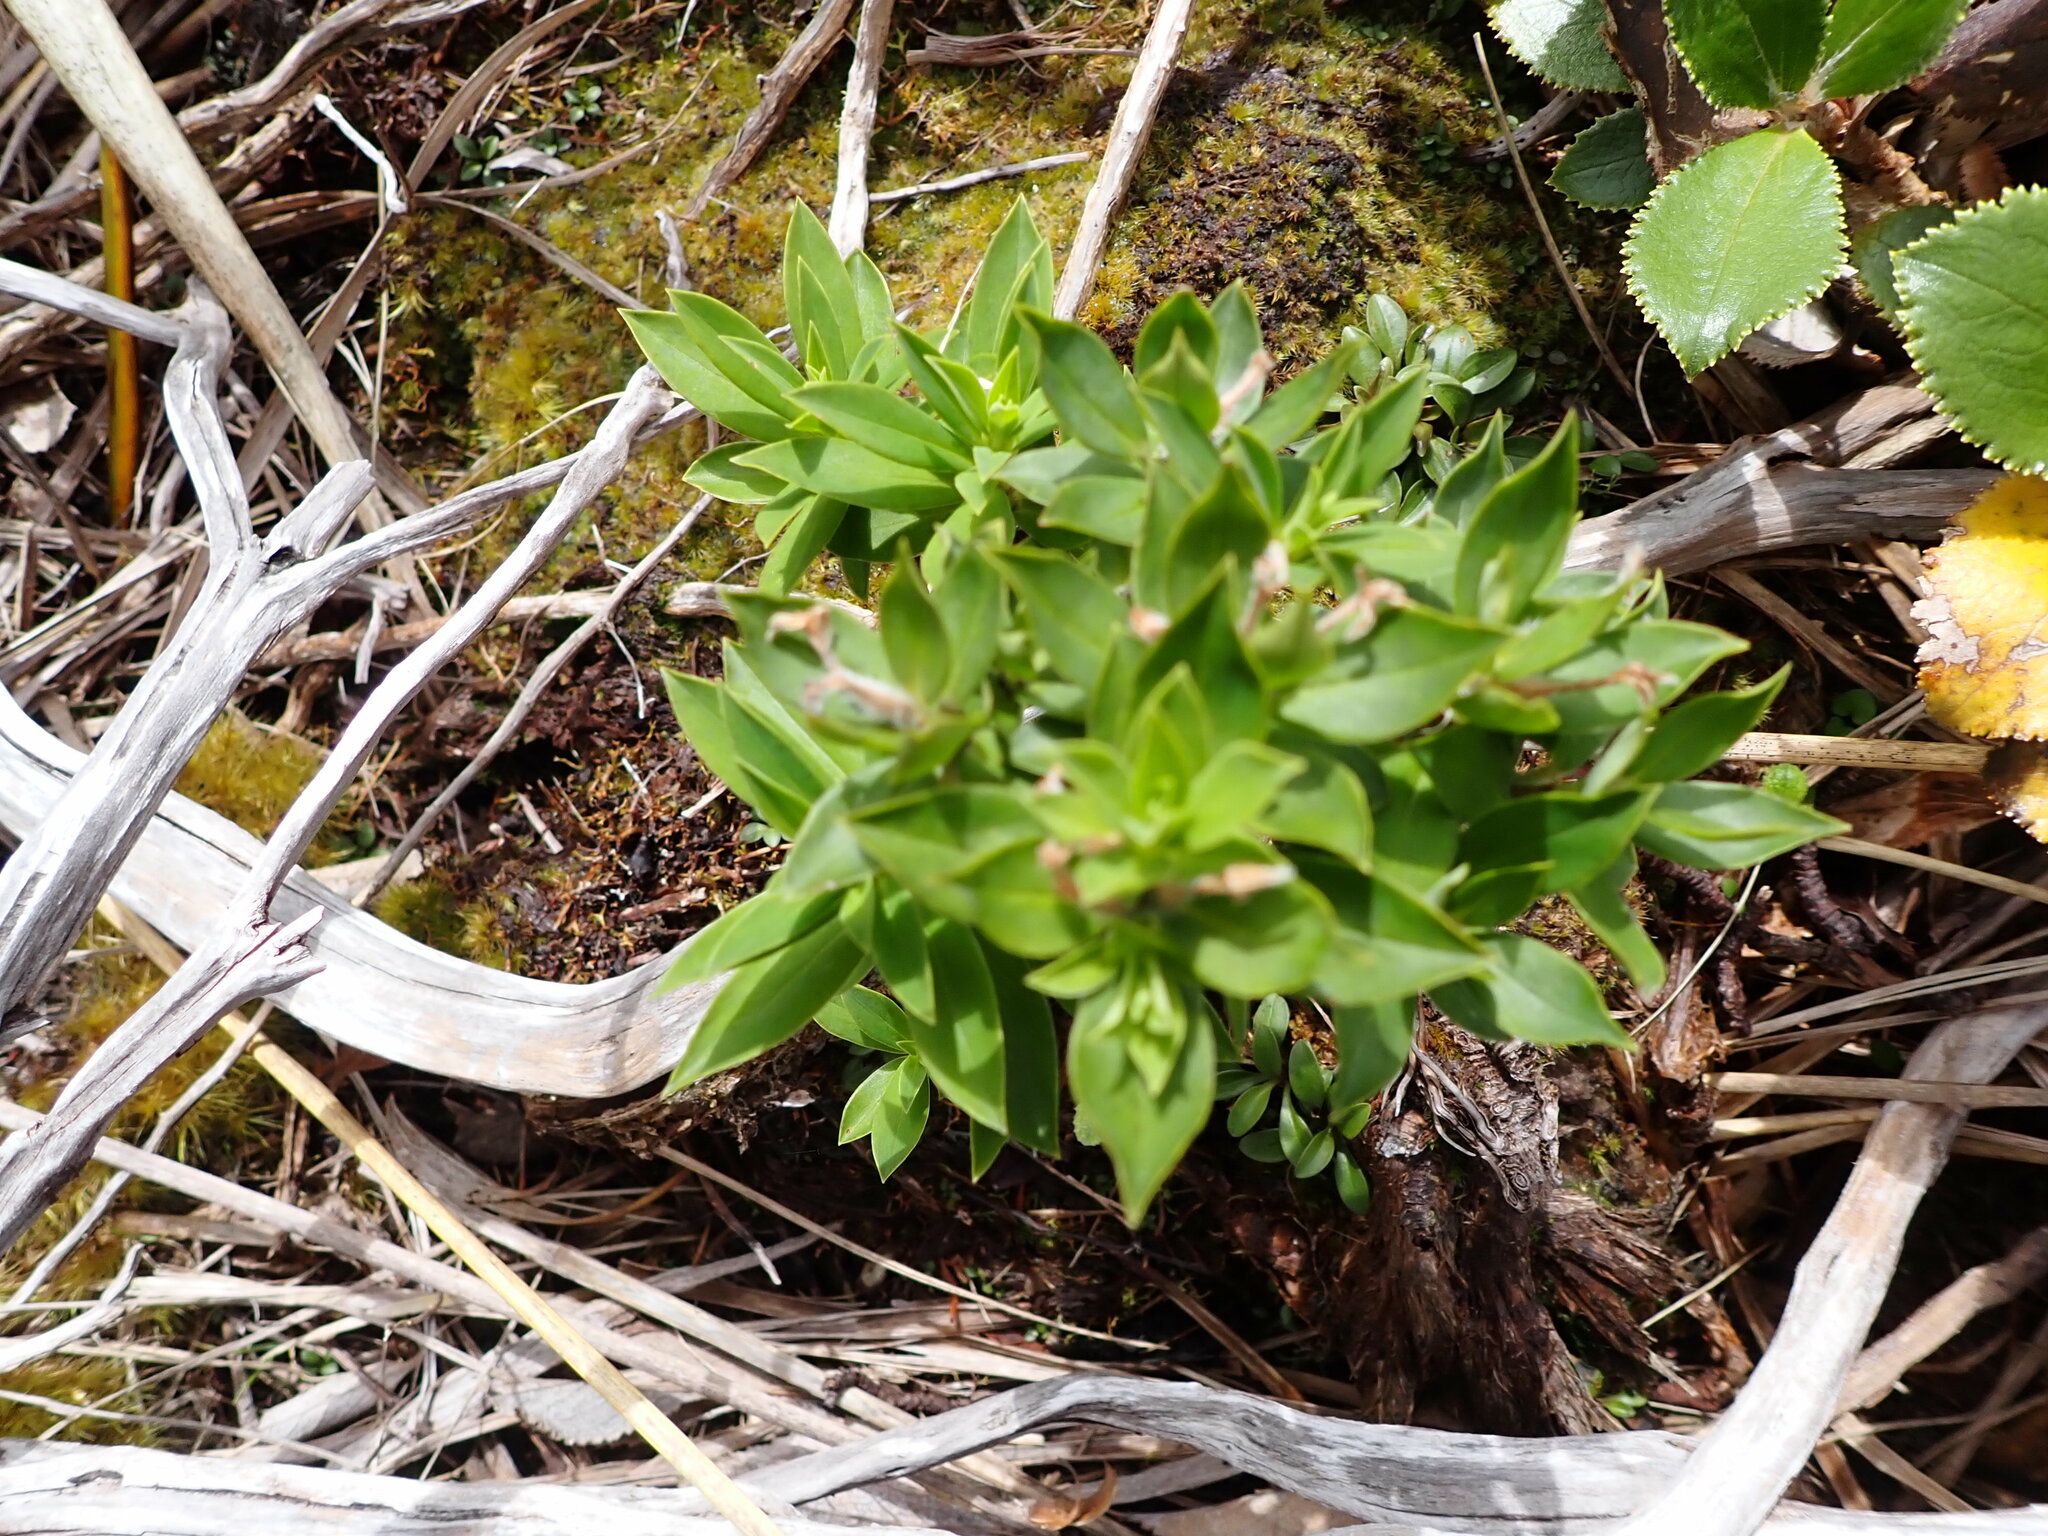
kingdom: Plantae
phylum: Tracheophyta
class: Magnoliopsida
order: Malvales
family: Thymelaeaceae
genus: Pimelea
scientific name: Pimelea gnidia
